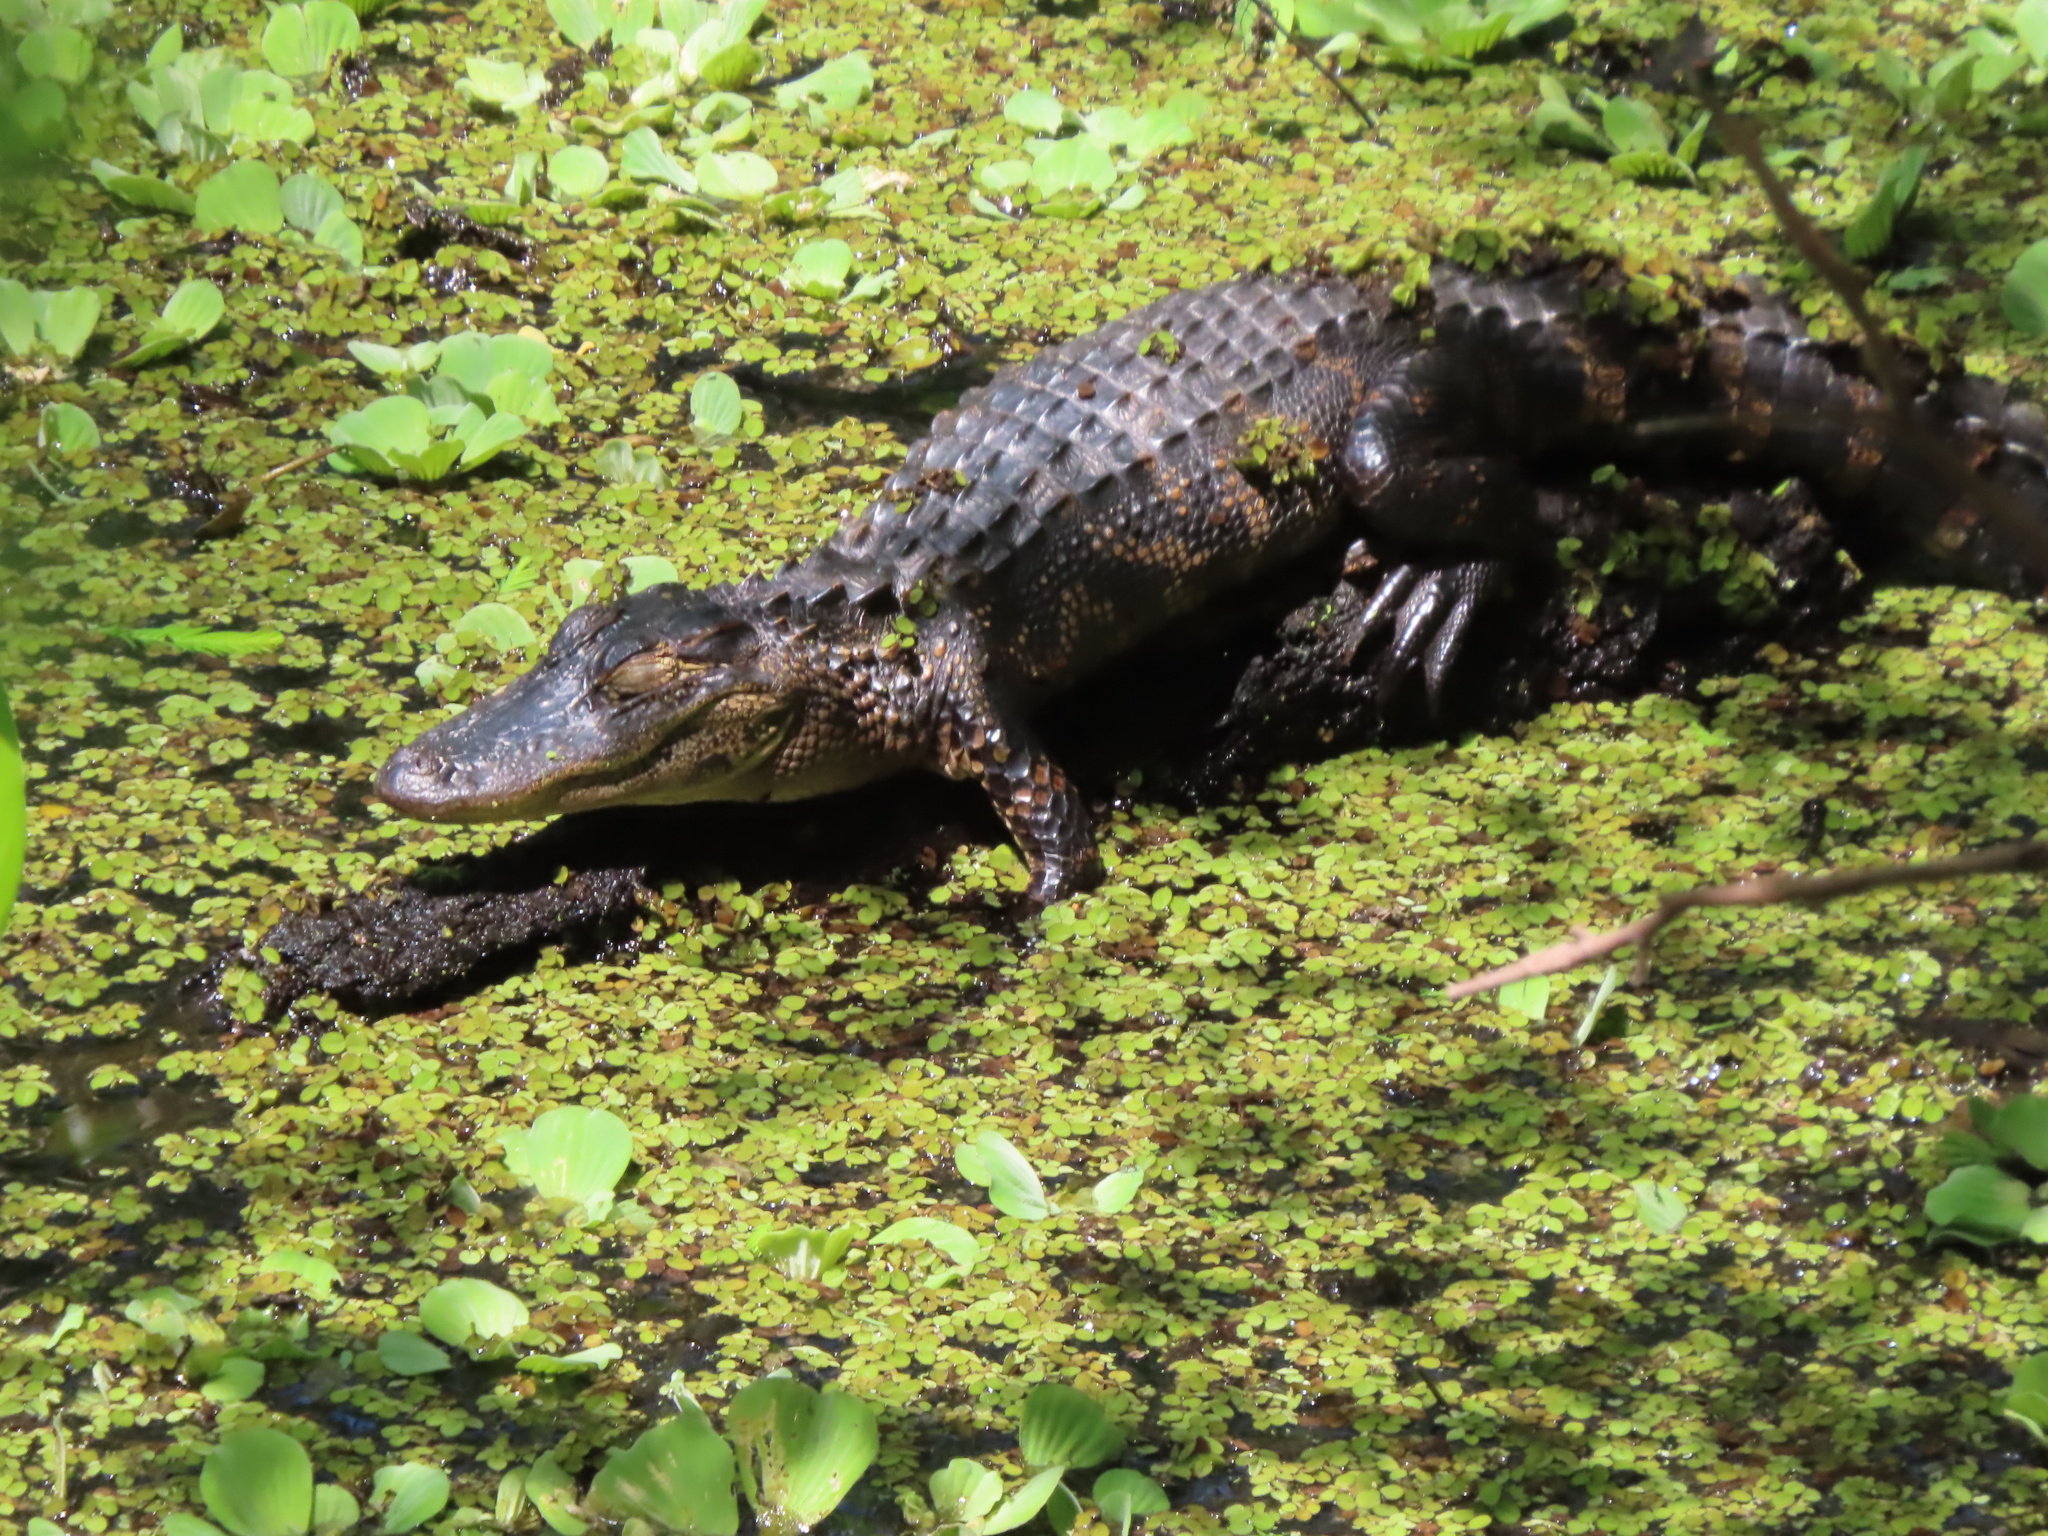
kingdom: Animalia
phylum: Chordata
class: Crocodylia
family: Alligatoridae
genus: Alligator
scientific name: Alligator mississippiensis
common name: American alligator
